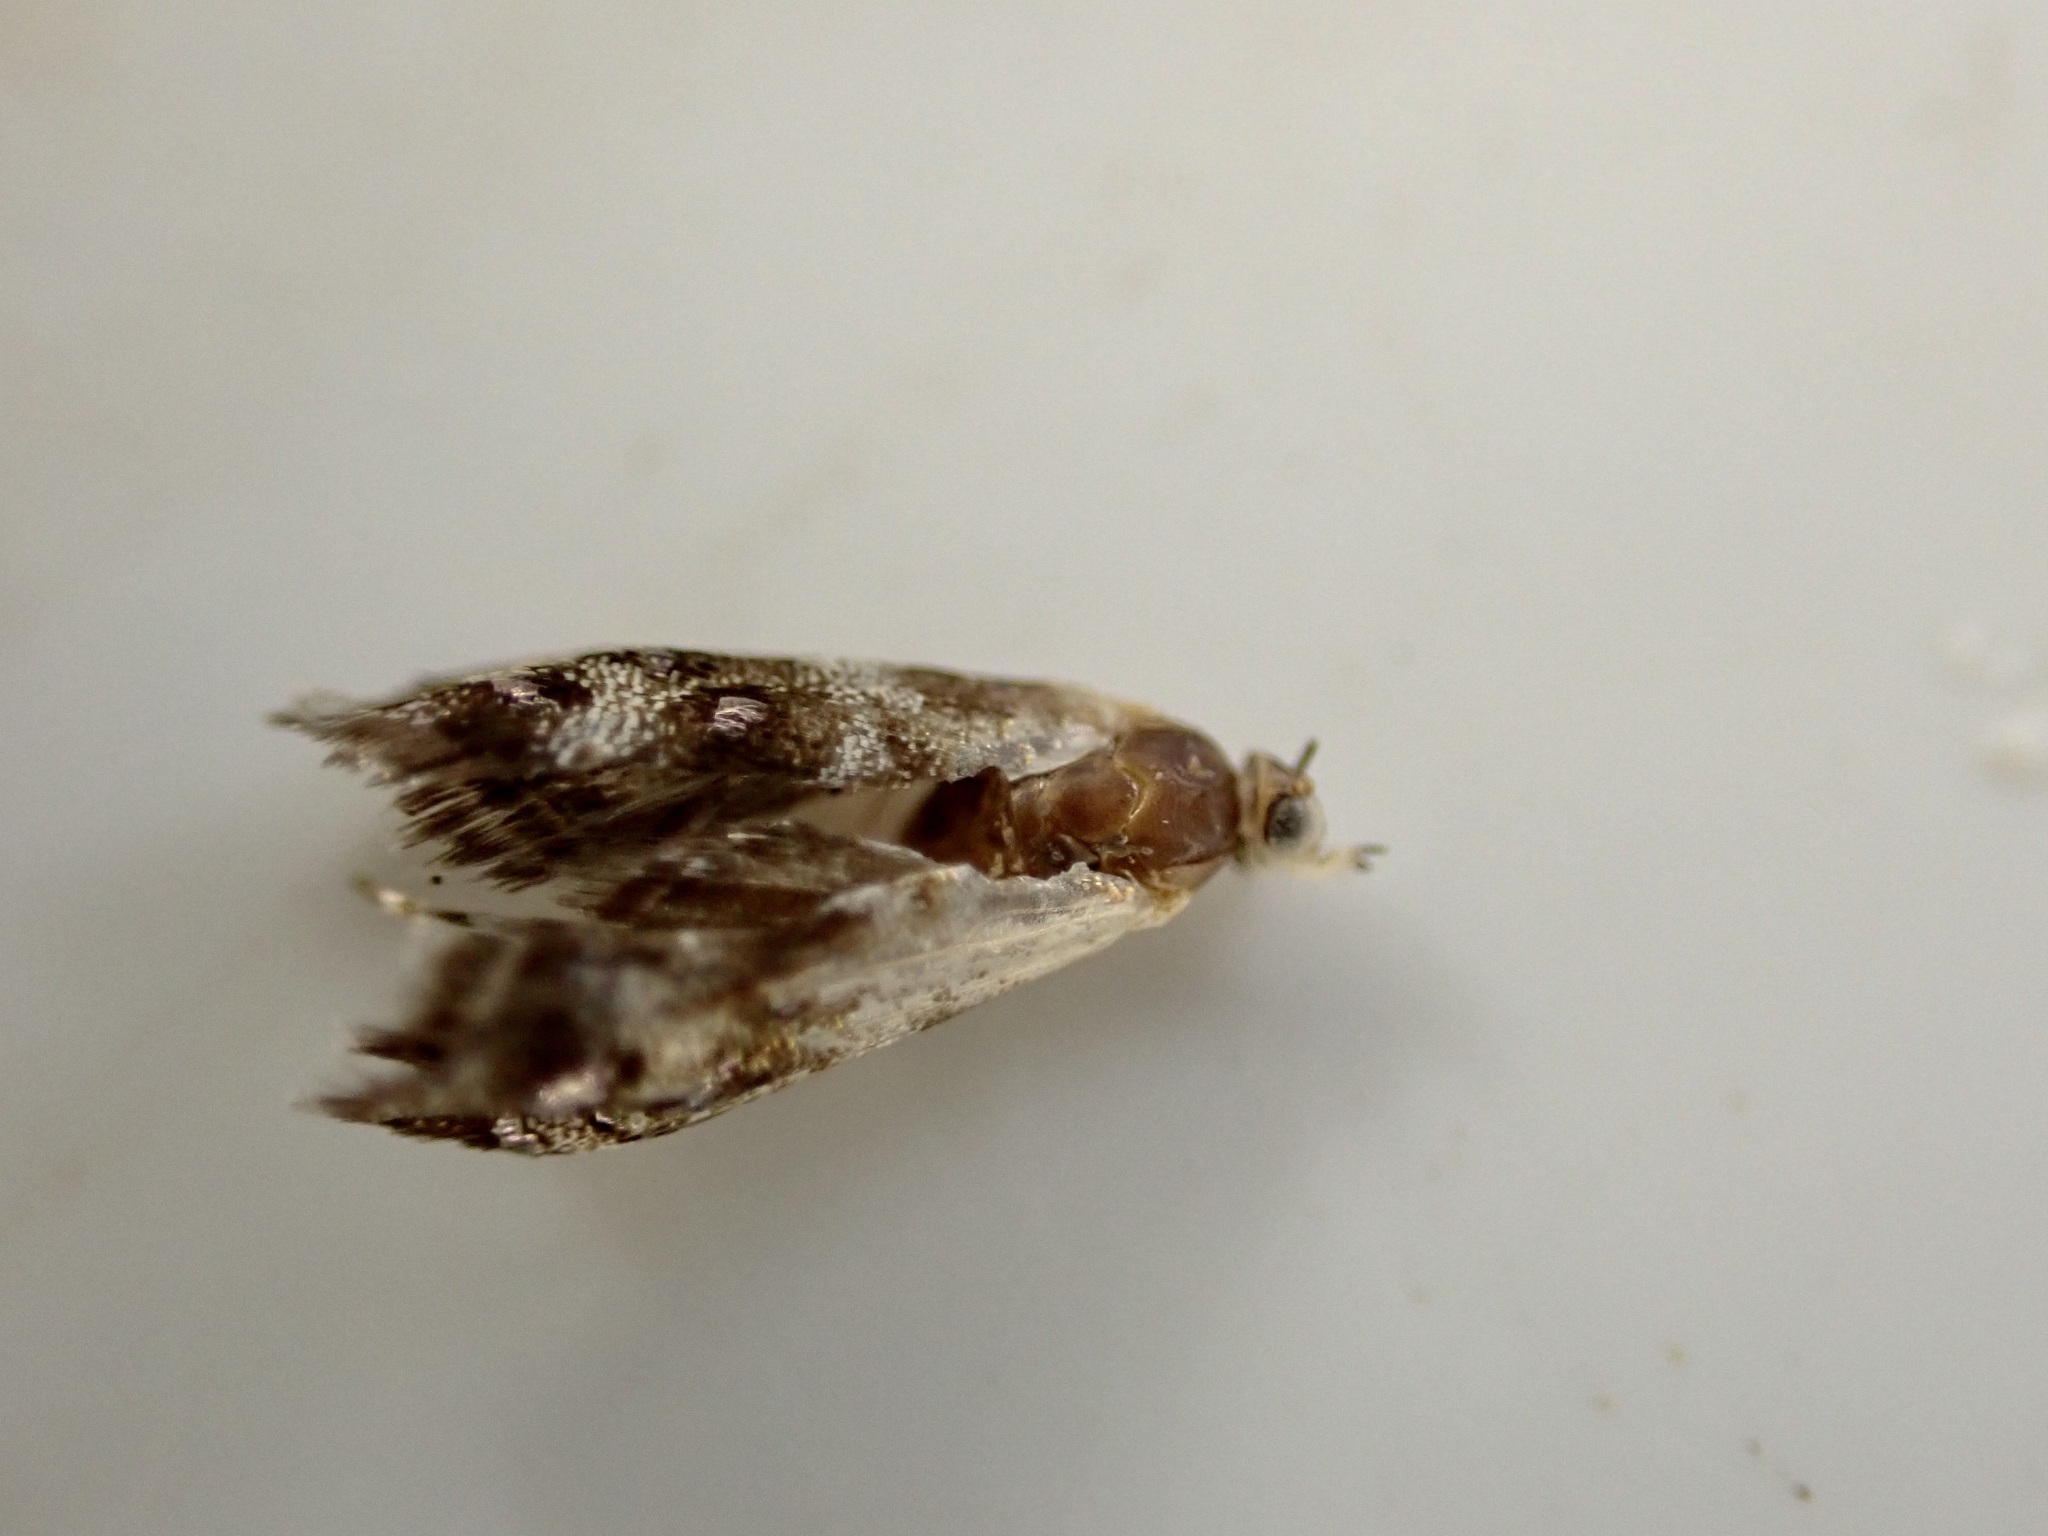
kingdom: Animalia
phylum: Arthropoda
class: Insecta
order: Lepidoptera
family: Choreutidae
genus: Tebenna
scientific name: Tebenna micalis
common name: Vagrant twitcher
